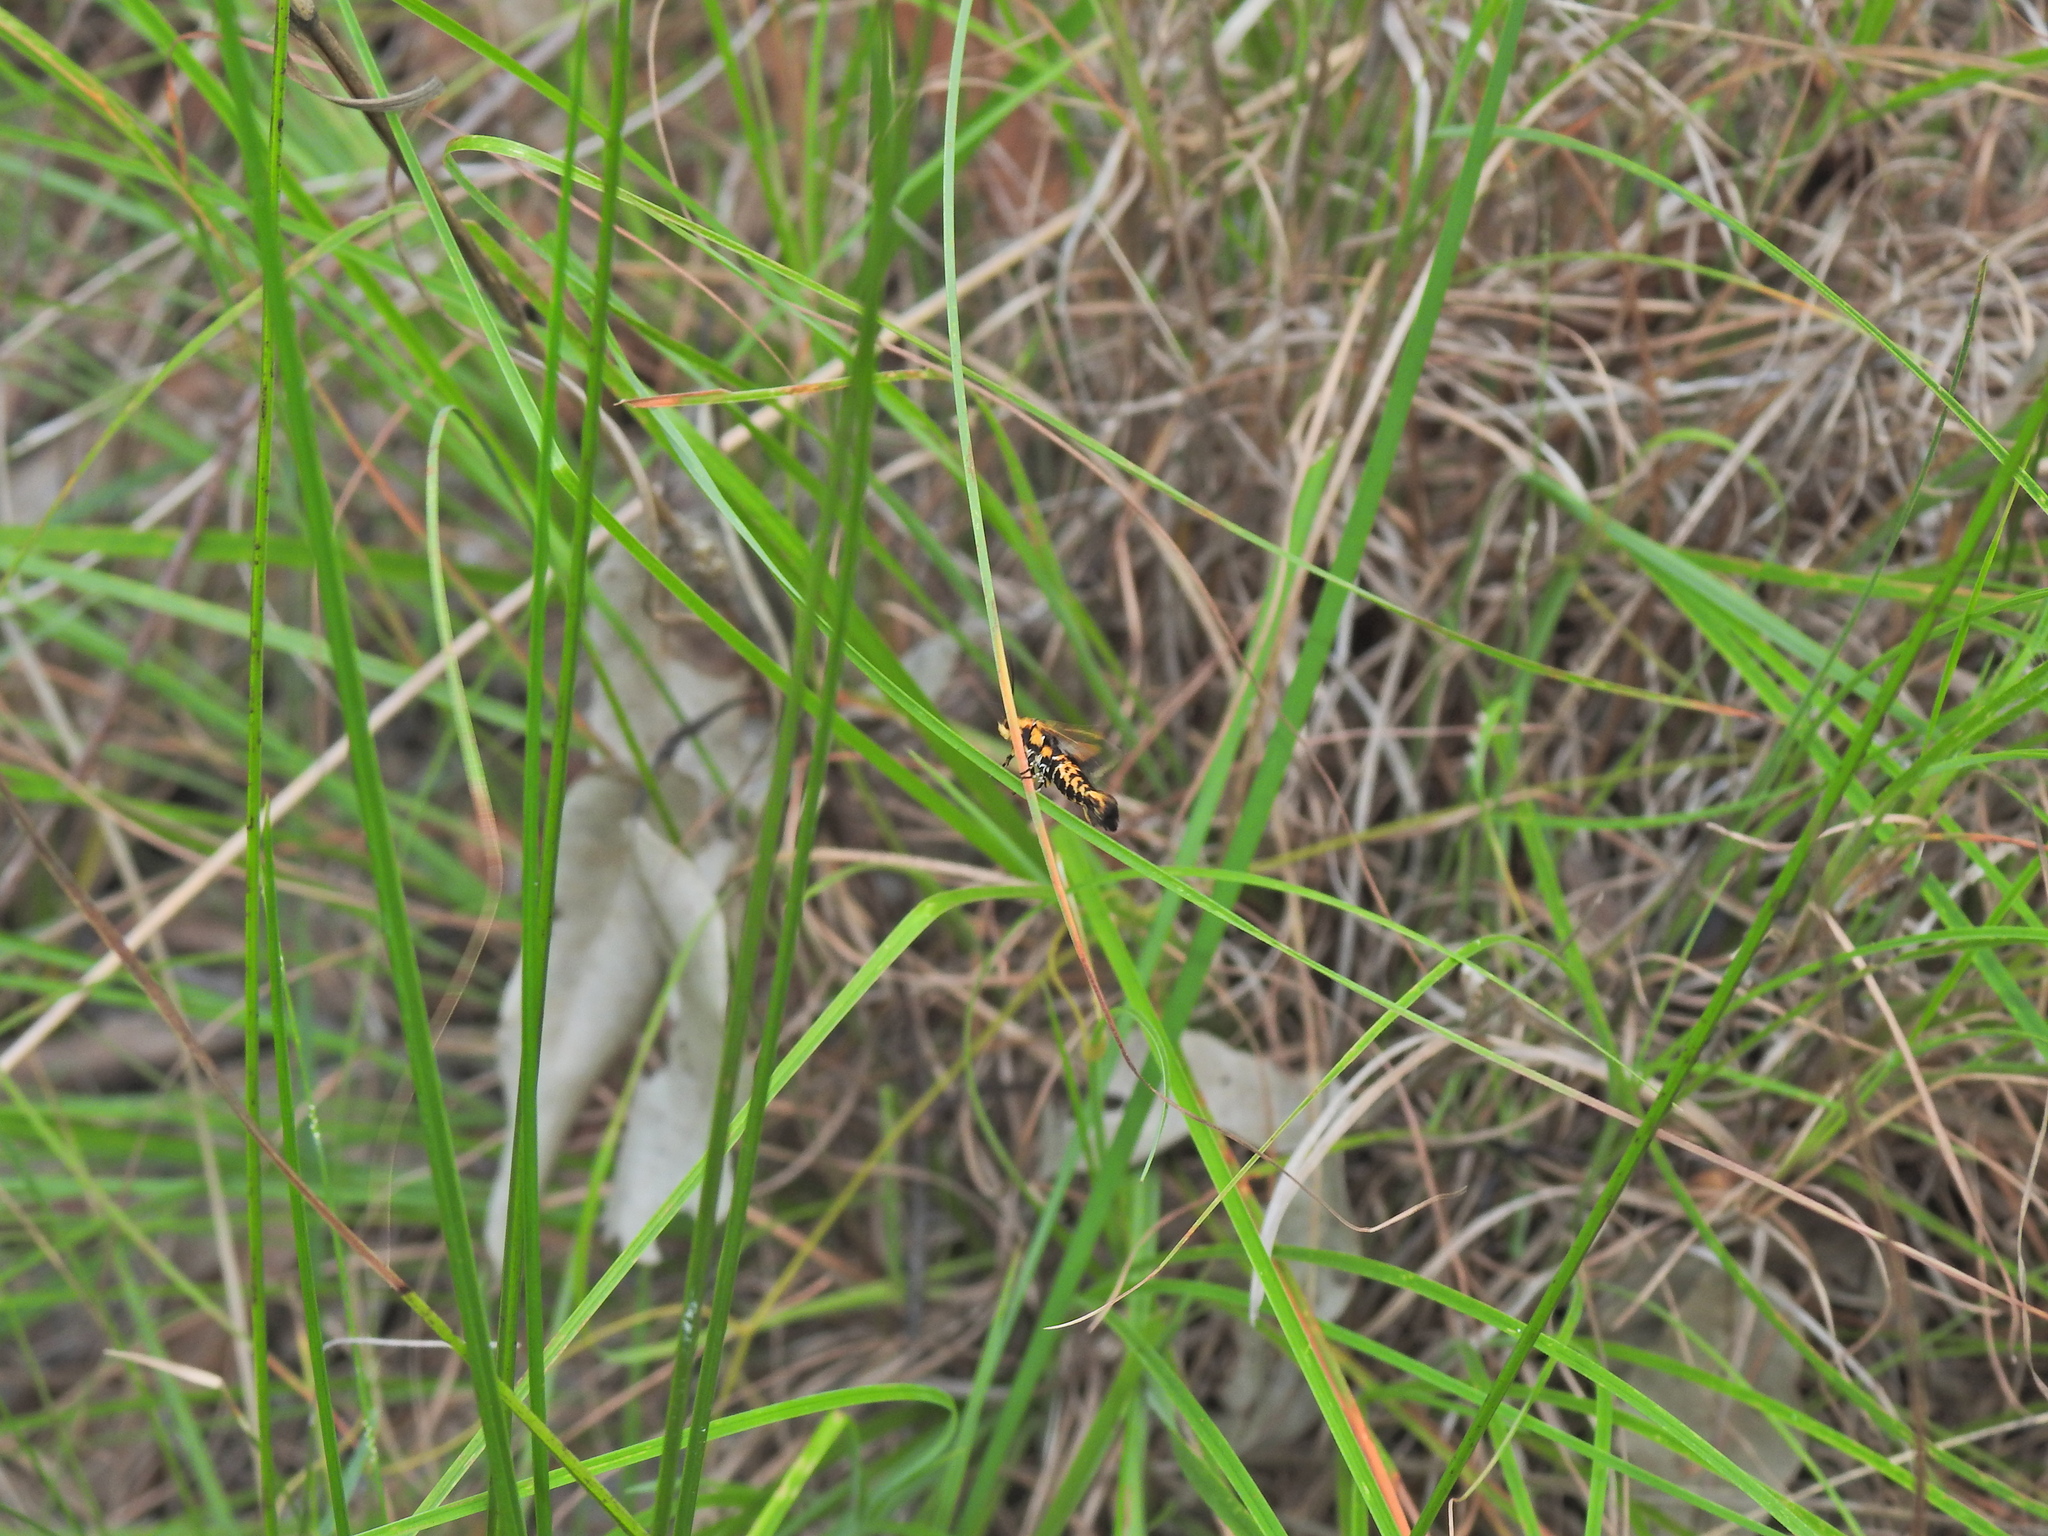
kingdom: Animalia
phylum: Arthropoda
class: Insecta
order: Lepidoptera
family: Brachodidae
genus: Miscera
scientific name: Miscera homotona
